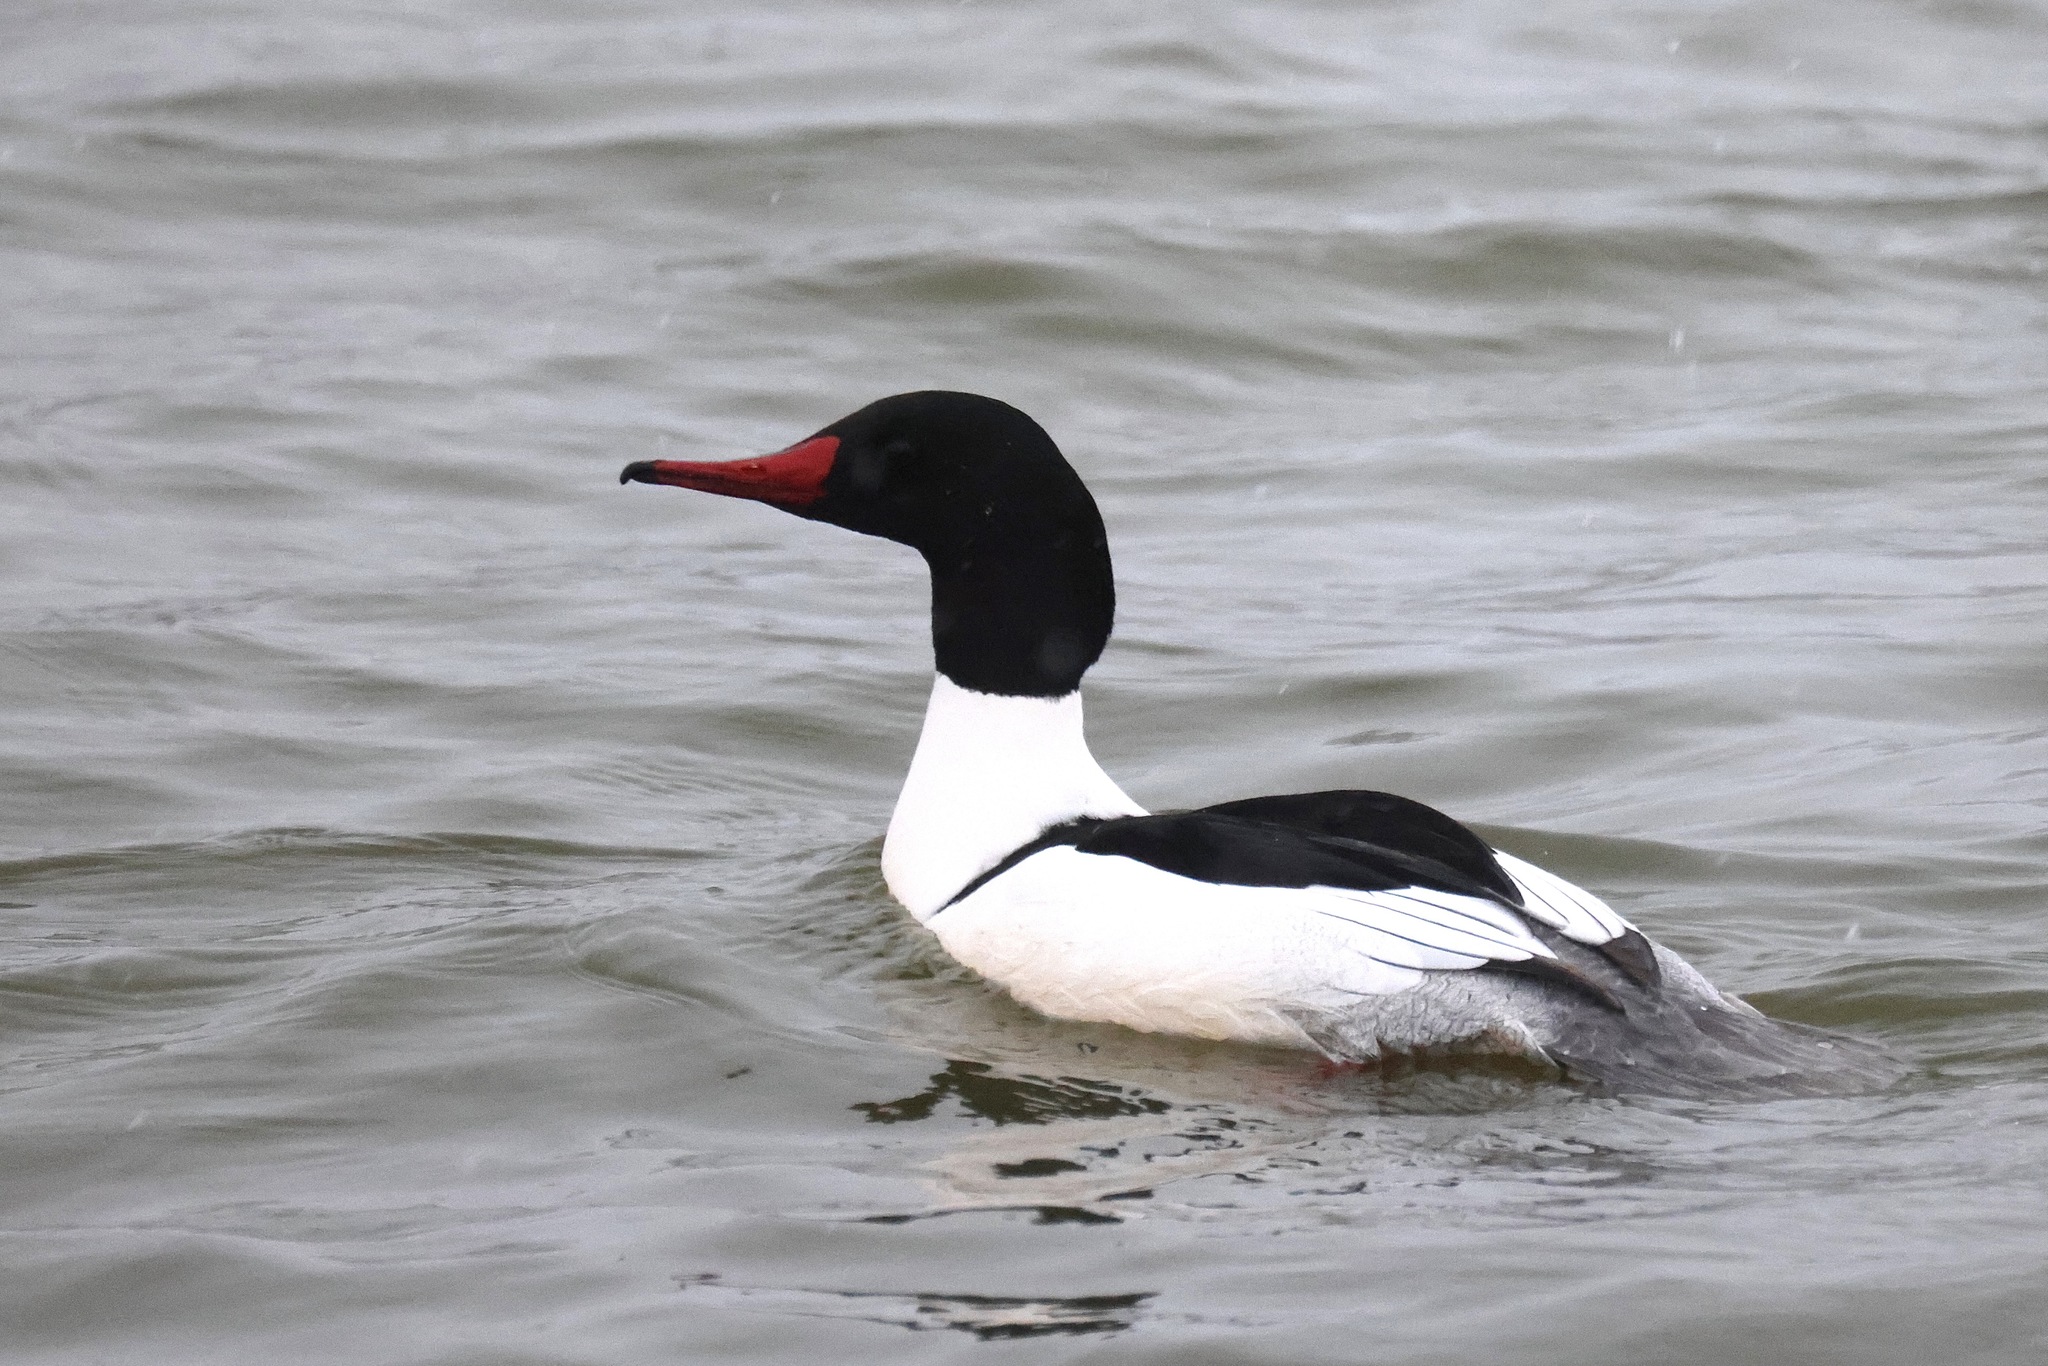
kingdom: Animalia
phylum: Chordata
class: Aves
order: Anseriformes
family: Anatidae
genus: Mergus
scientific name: Mergus merganser
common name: Common merganser
